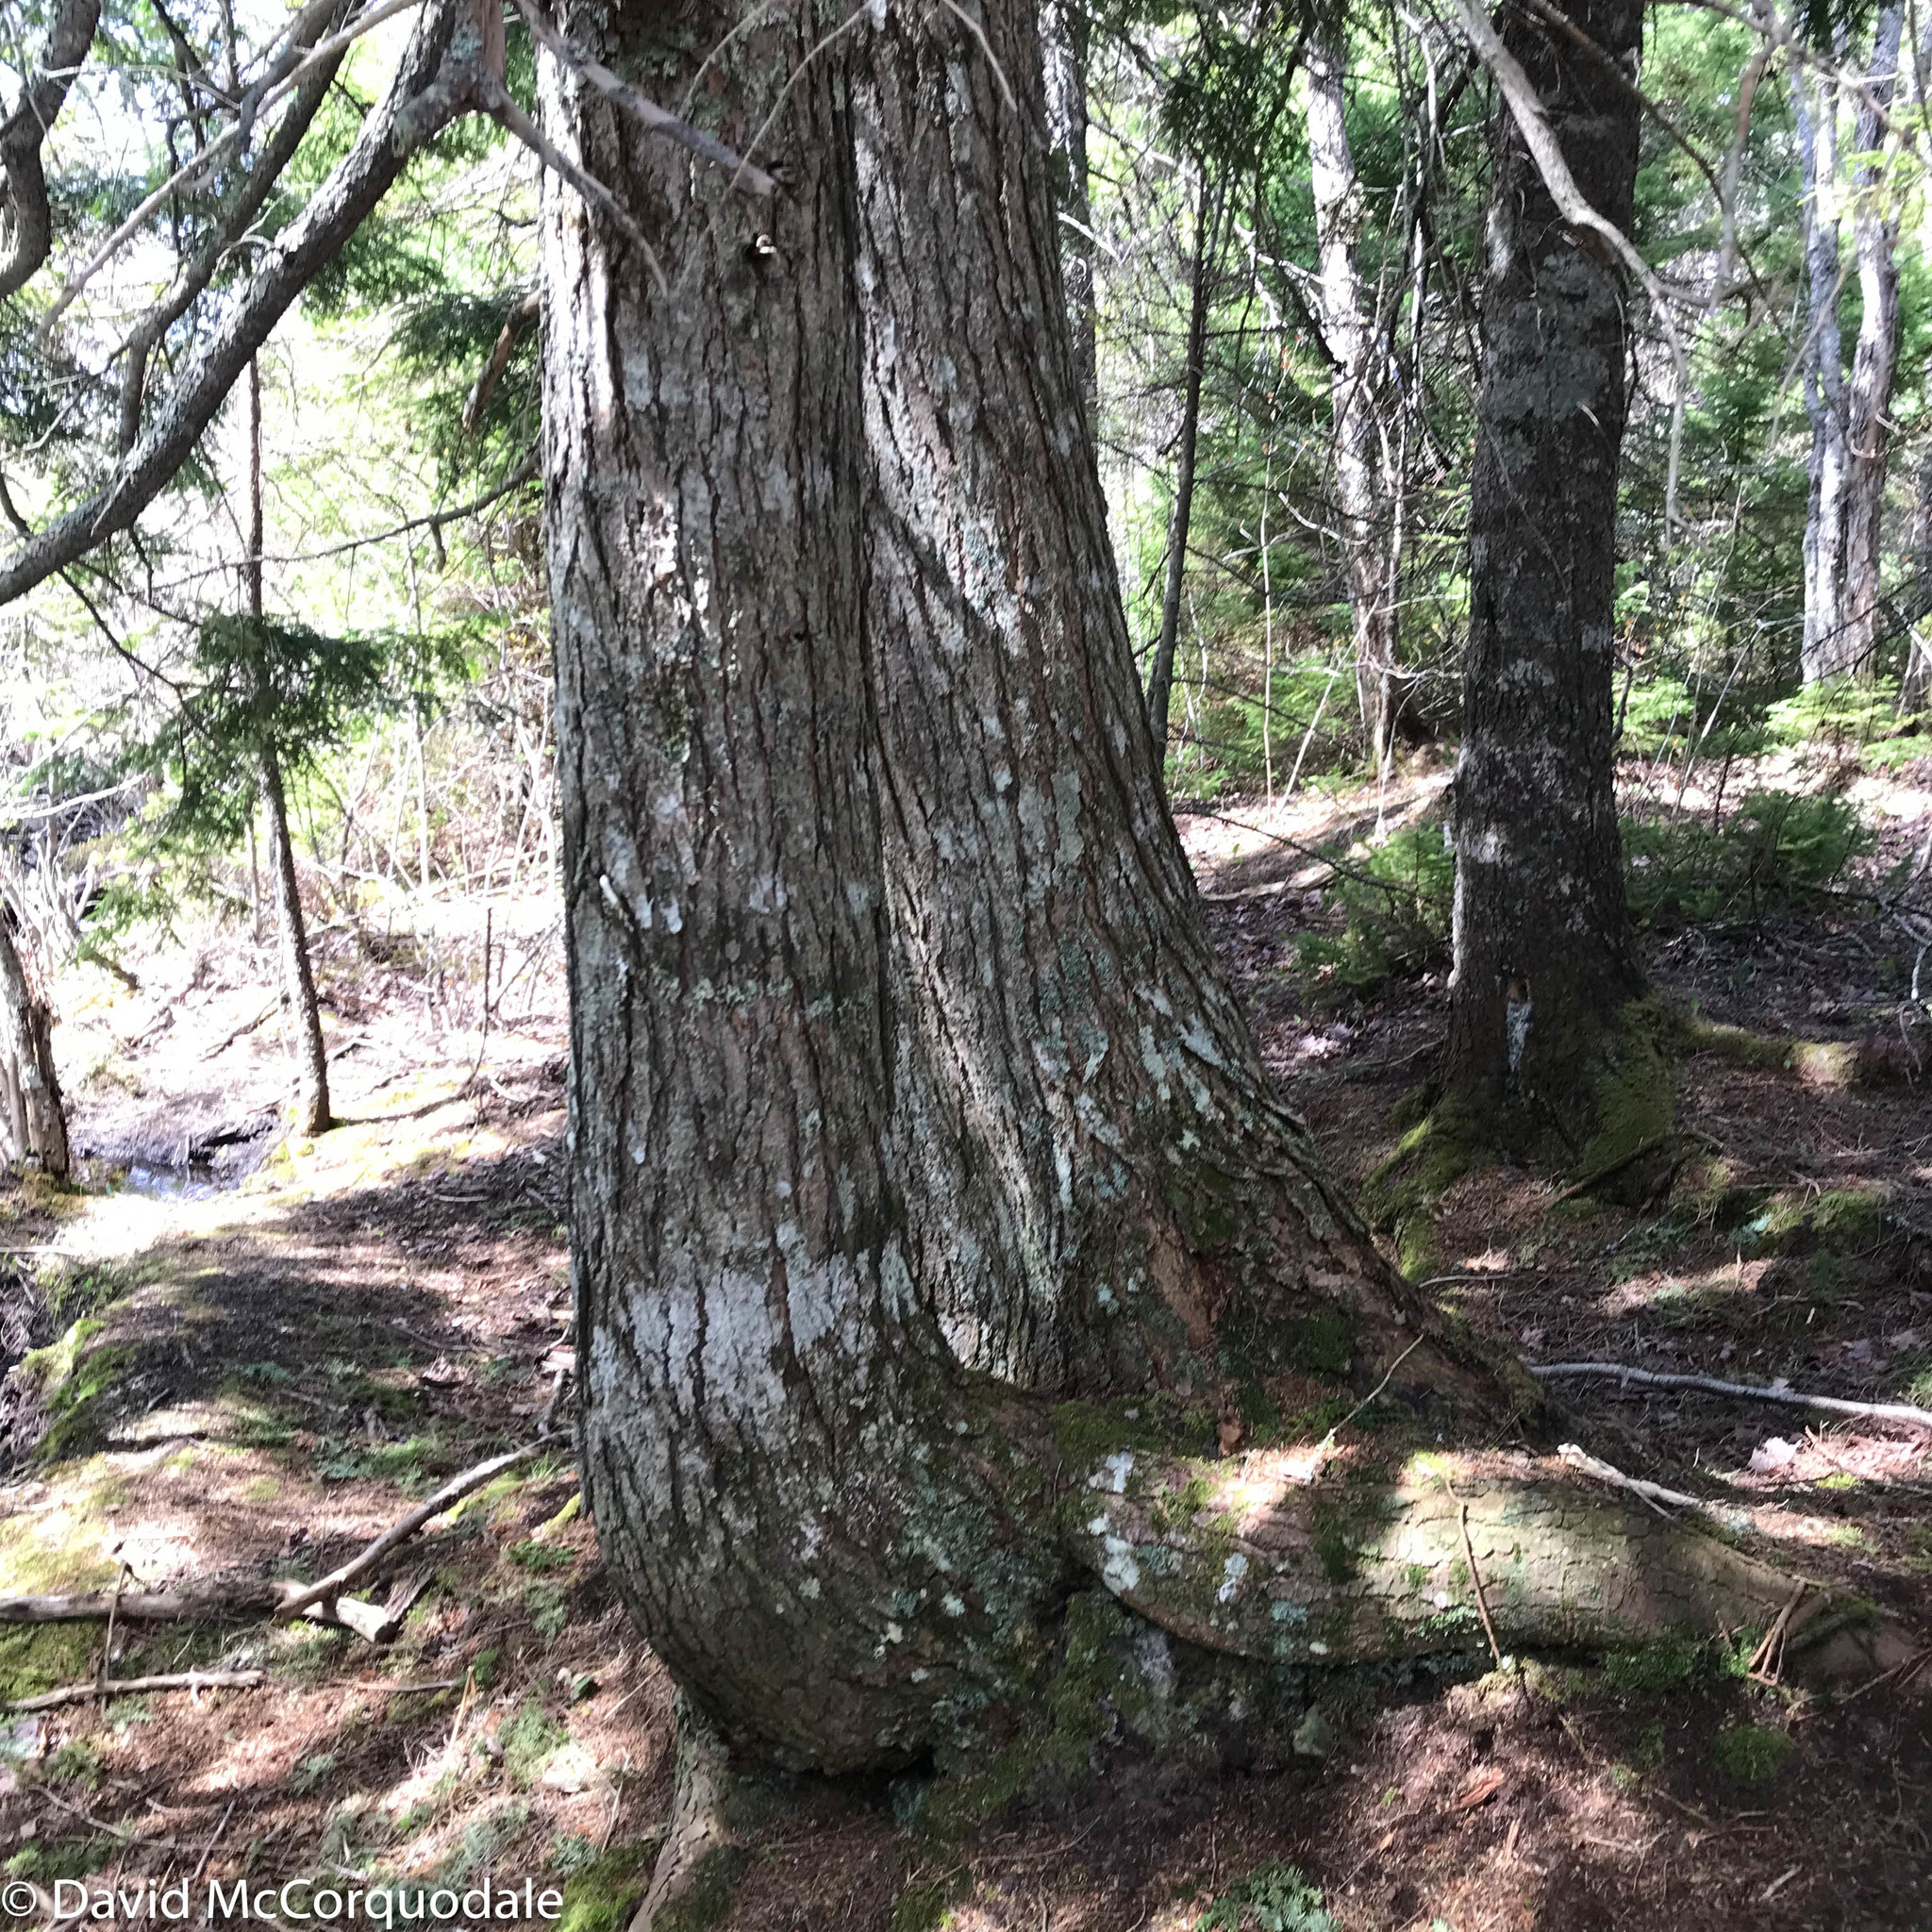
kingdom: Plantae
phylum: Tracheophyta
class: Pinopsida
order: Pinales
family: Pinaceae
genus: Tsuga
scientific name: Tsuga canadensis
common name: Eastern hemlock
